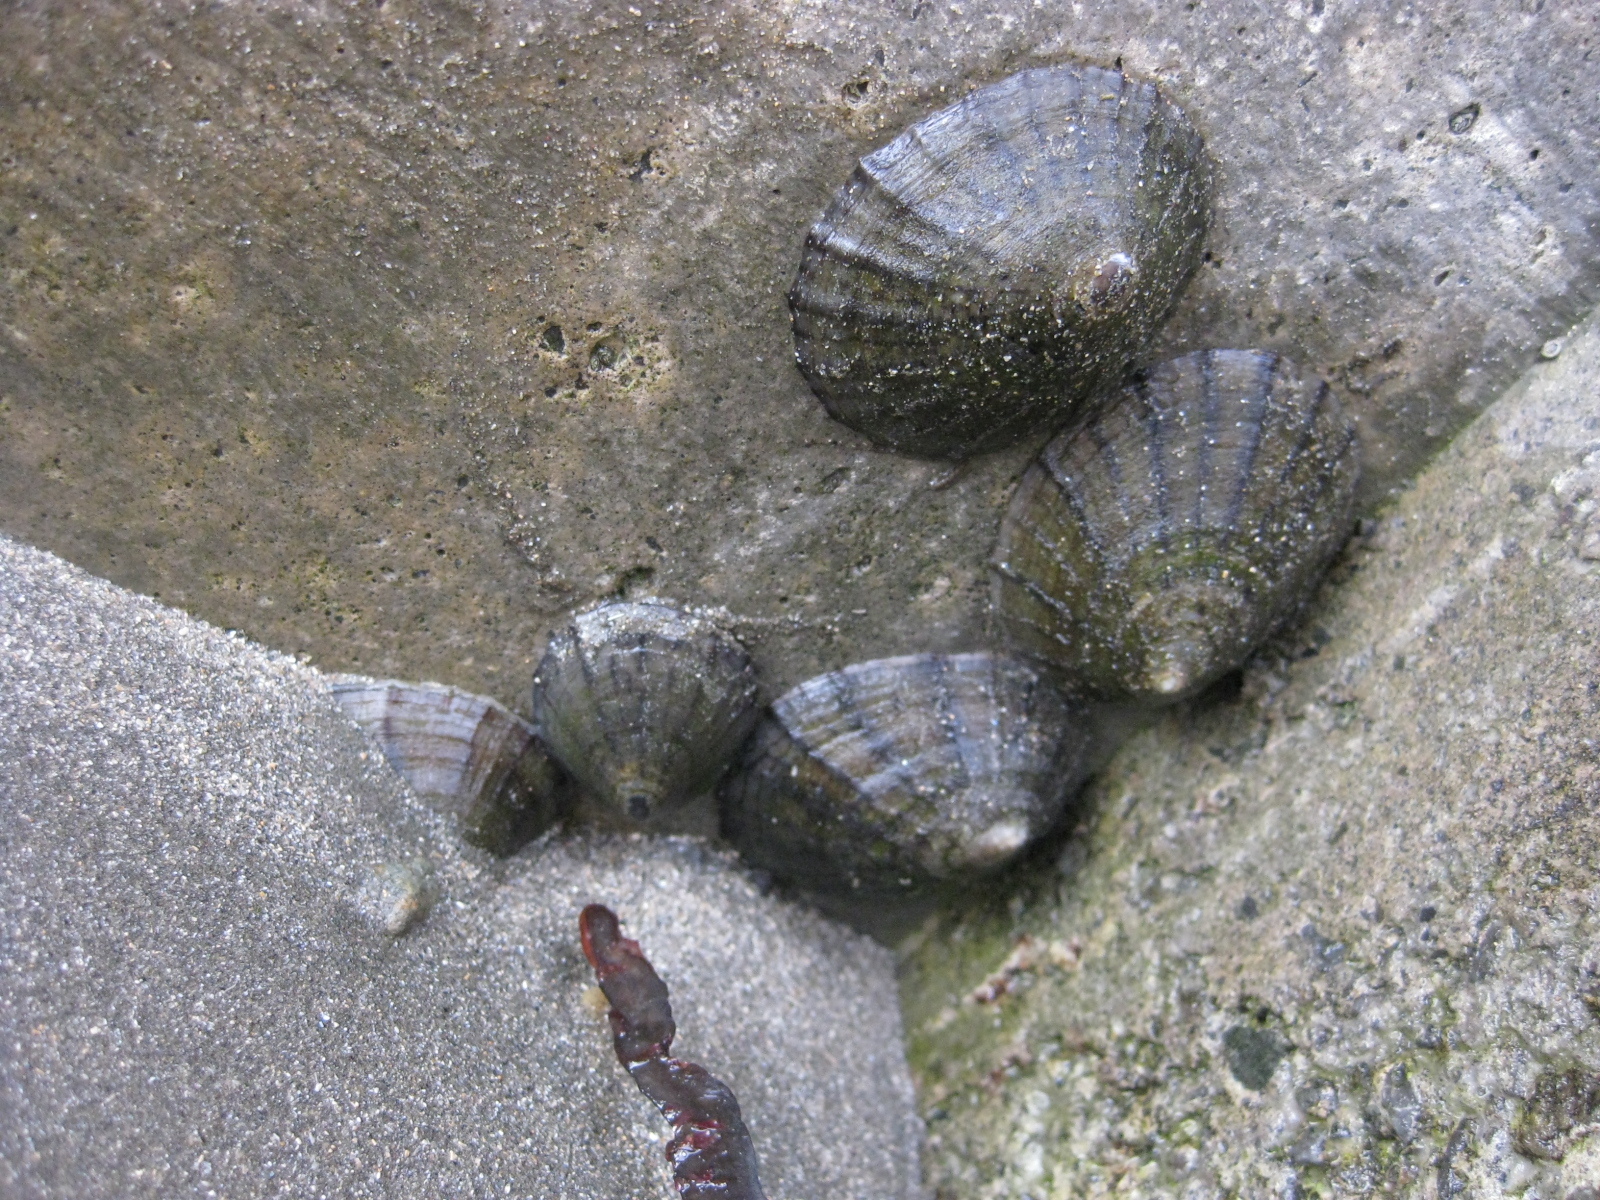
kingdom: Animalia
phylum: Mollusca
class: Gastropoda
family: Nacellidae
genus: Cellana
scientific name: Cellana radians
